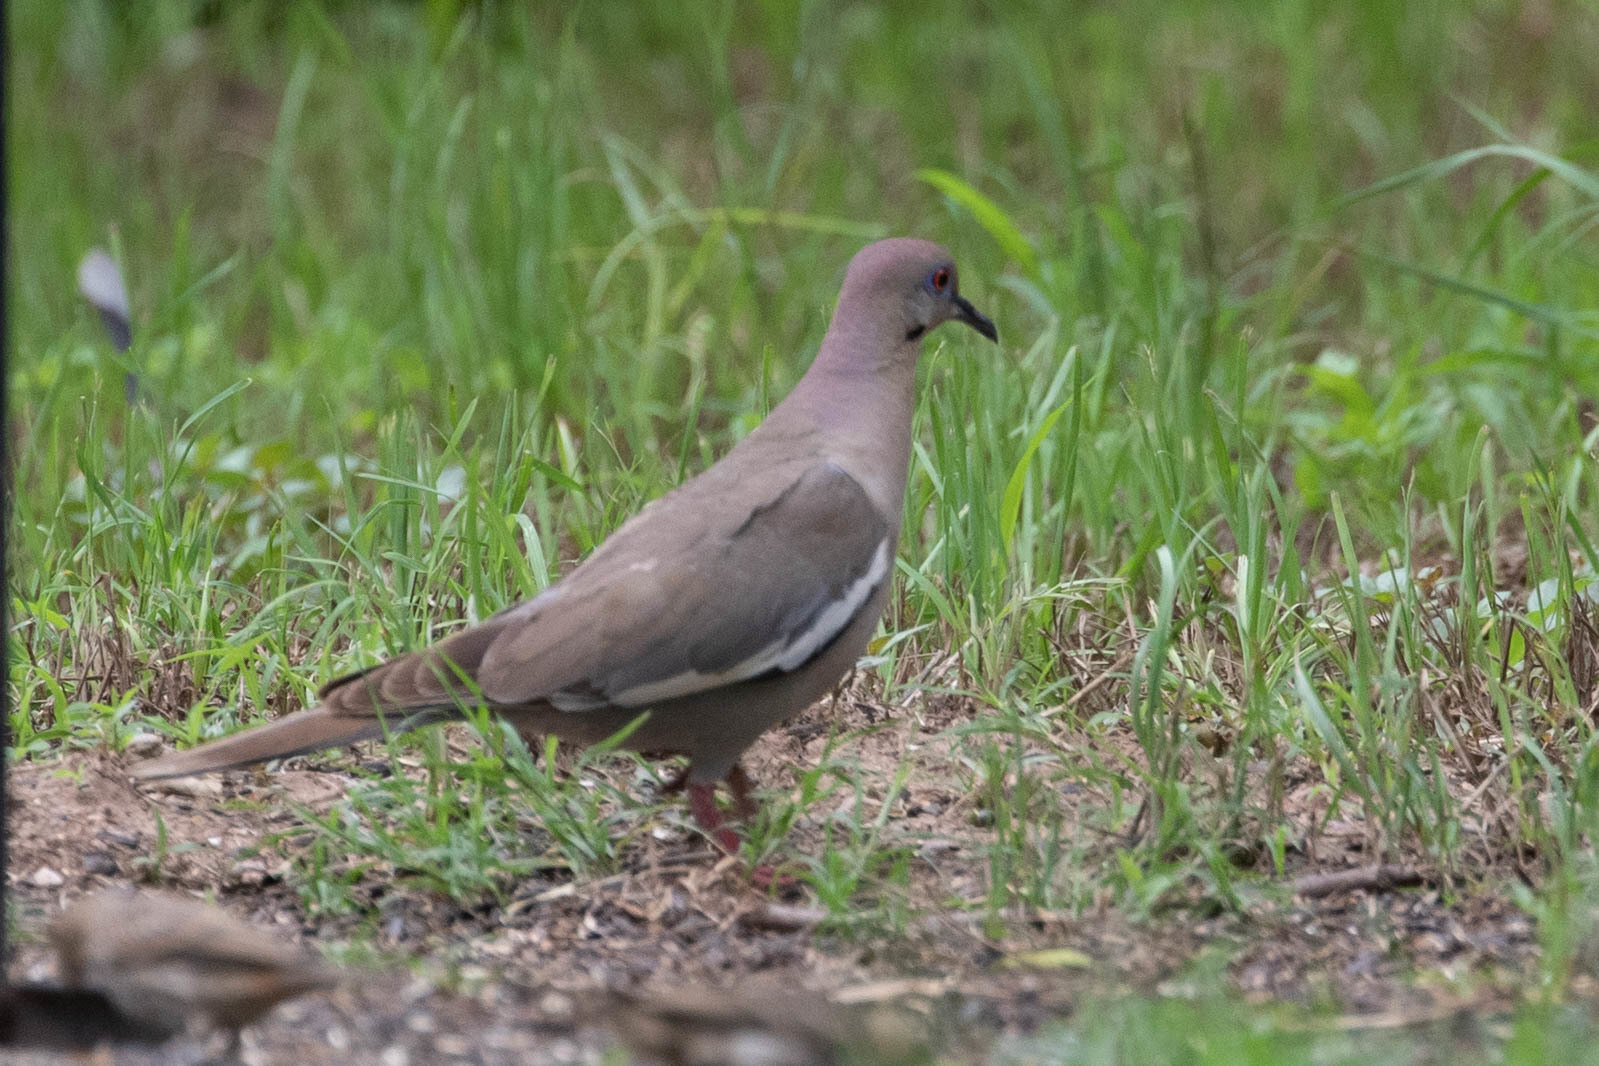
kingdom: Animalia
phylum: Chordata
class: Aves
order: Columbiformes
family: Columbidae
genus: Zenaida
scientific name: Zenaida asiatica
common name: White-winged dove
